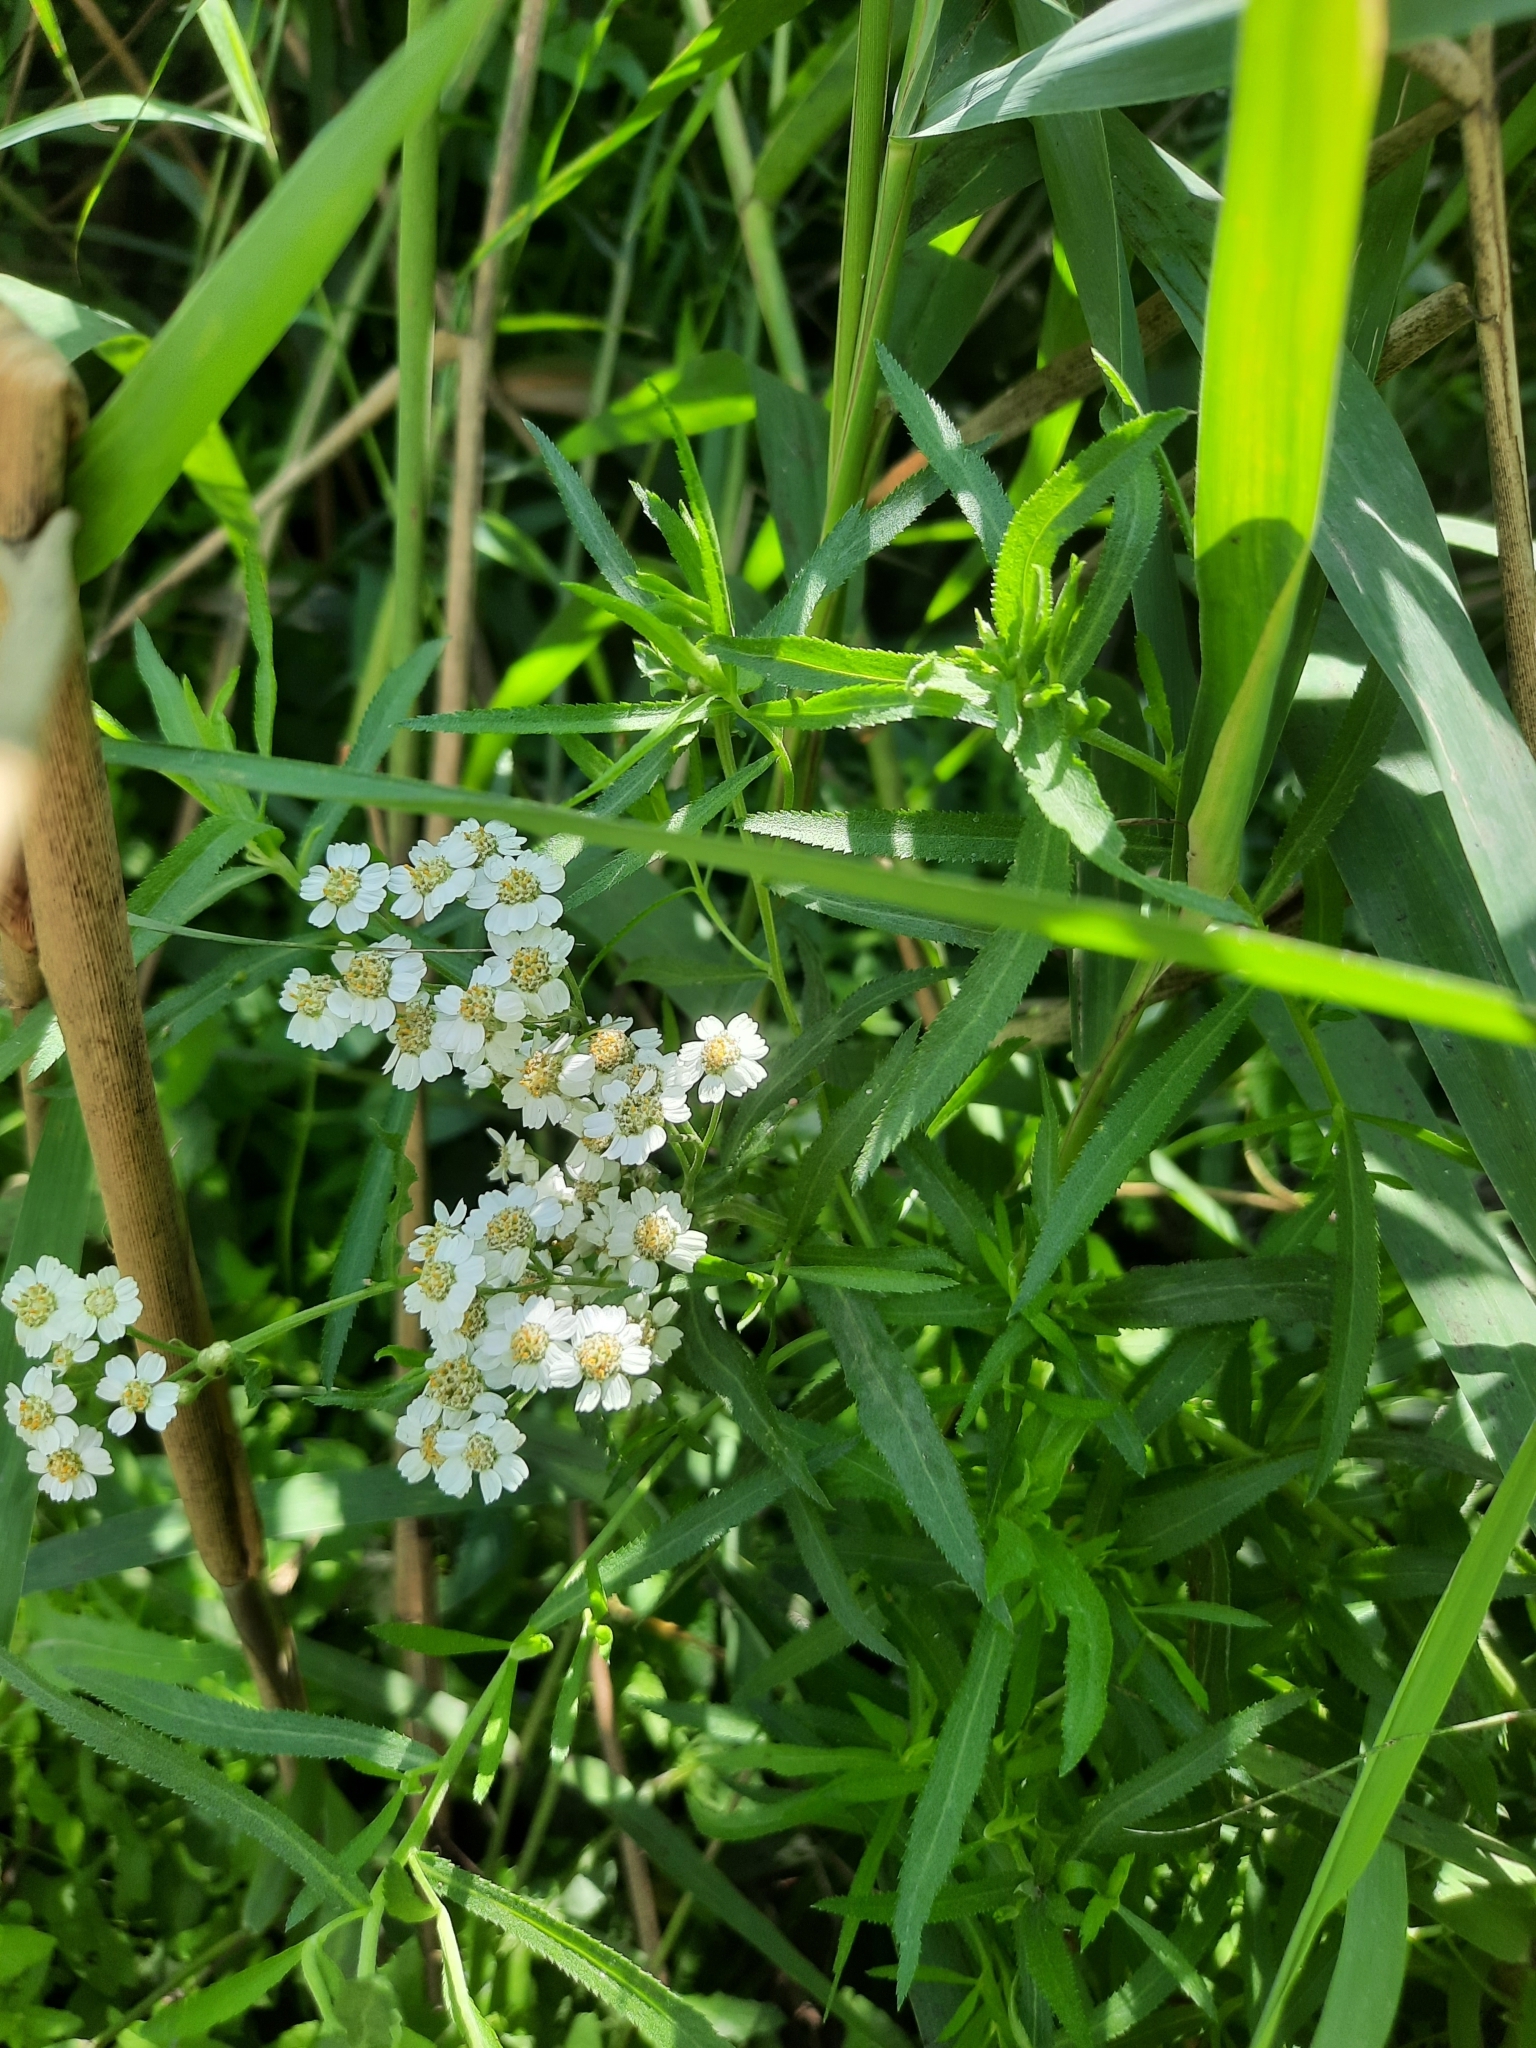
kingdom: Plantae
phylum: Tracheophyta
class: Magnoliopsida
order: Asterales
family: Asteraceae
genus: Achillea
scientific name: Achillea salicifolia
